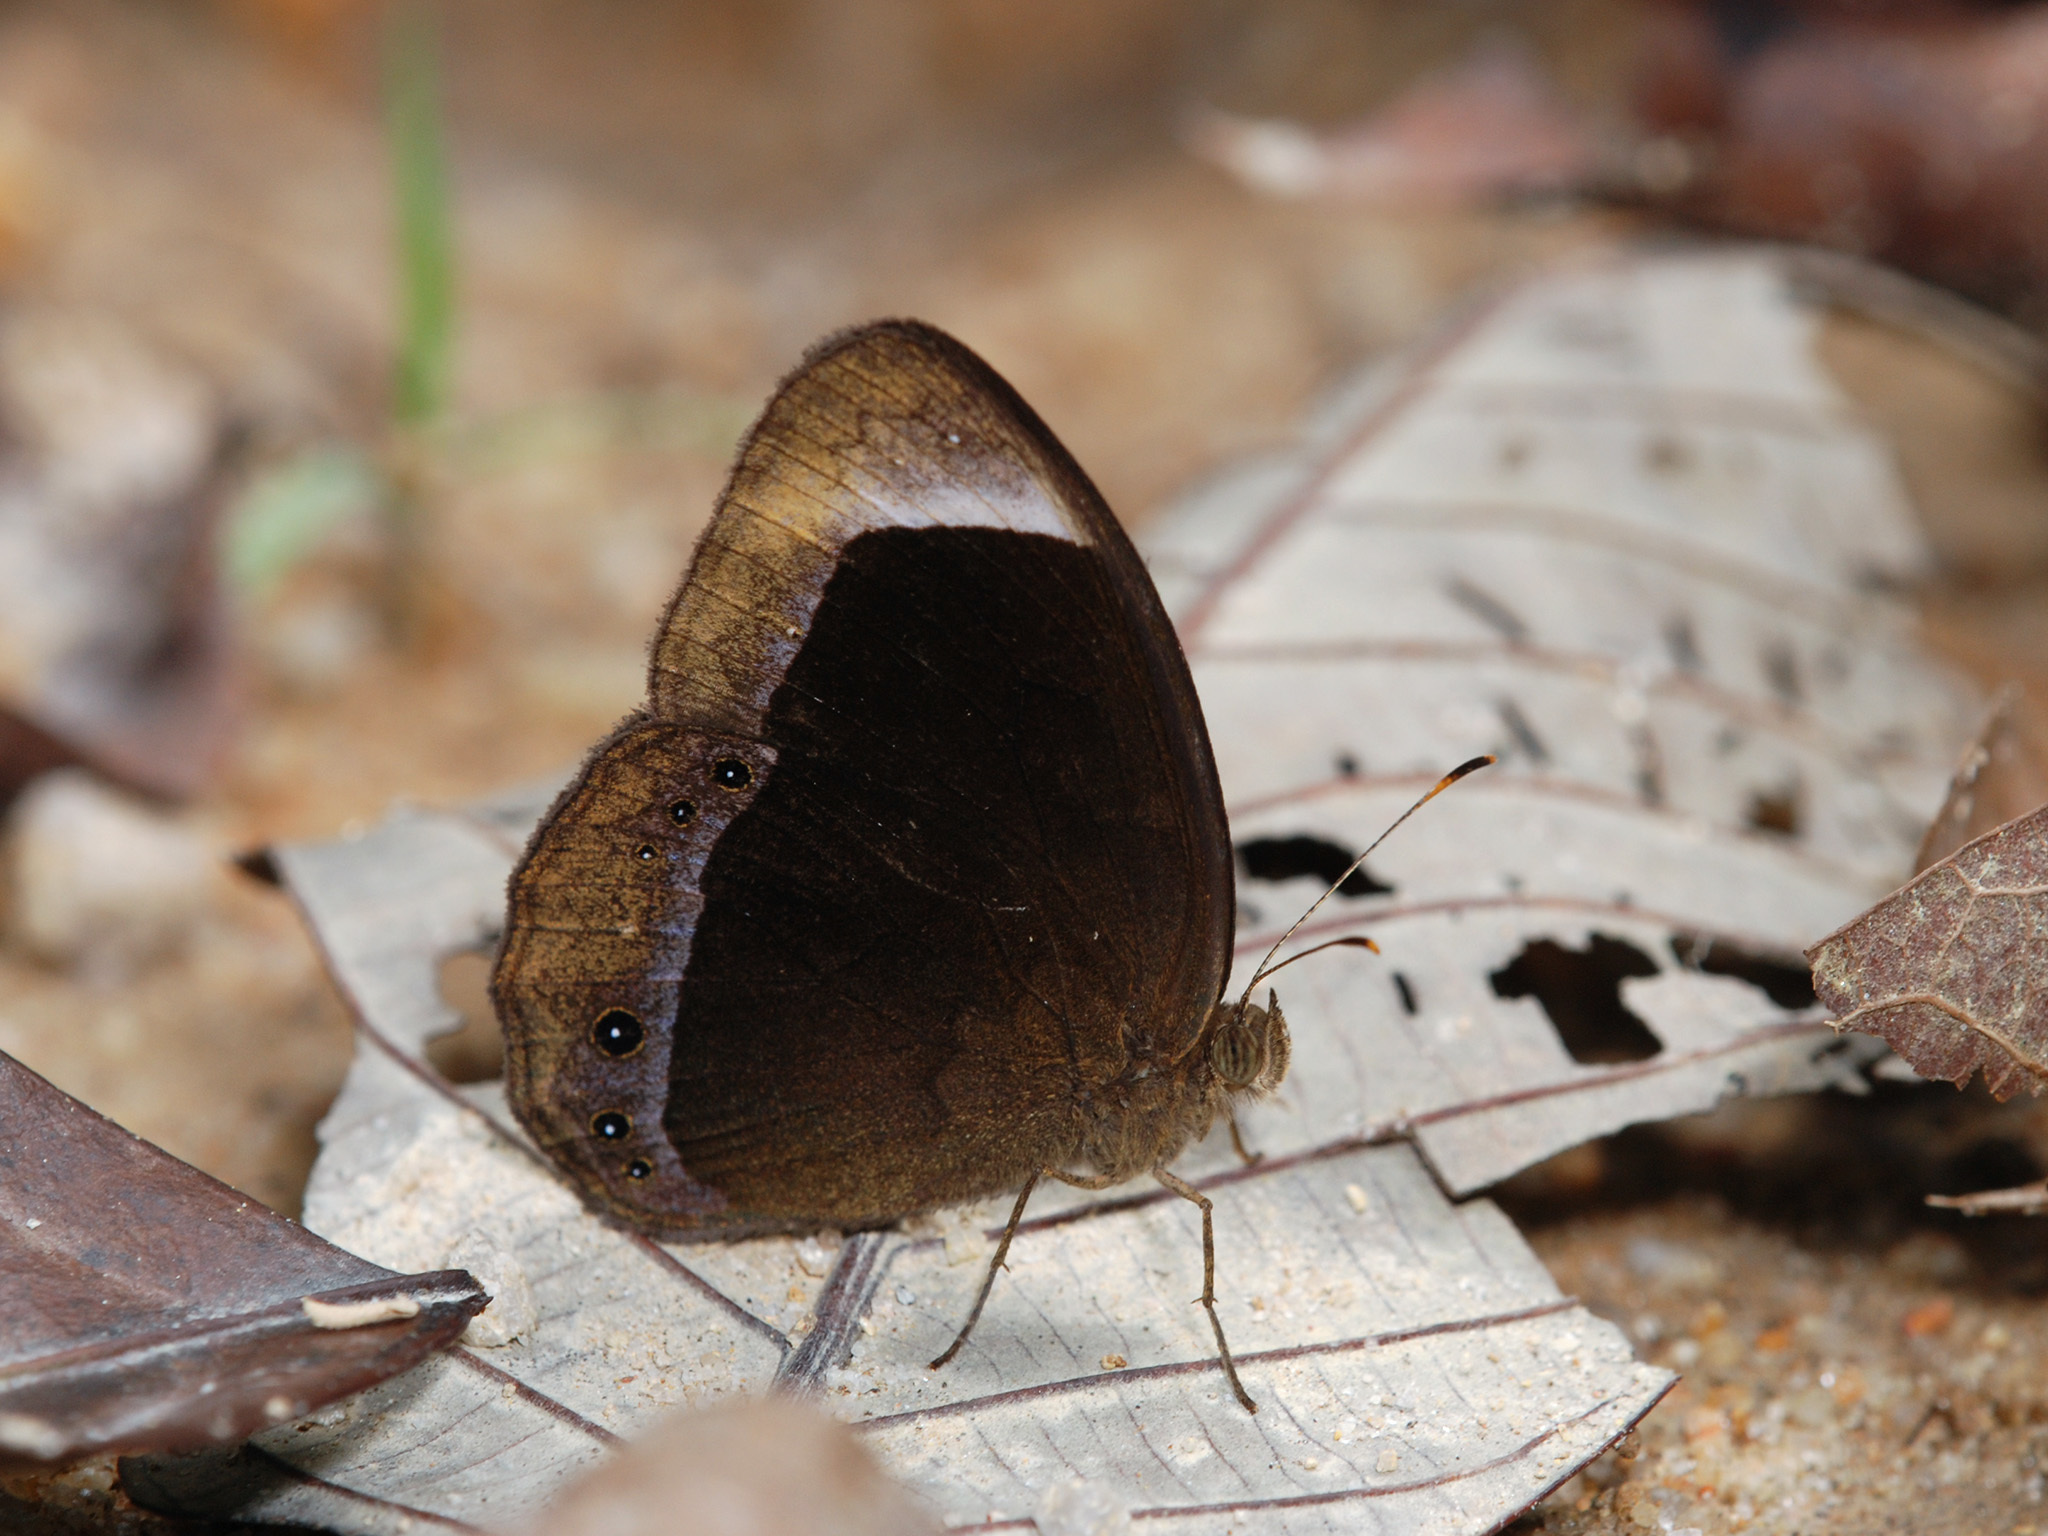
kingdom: Animalia
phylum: Arthropoda
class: Insecta
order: Lepidoptera
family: Nymphalidae
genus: Mycalesis
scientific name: Mycalesis anaxias
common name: White-bar bushbrown
